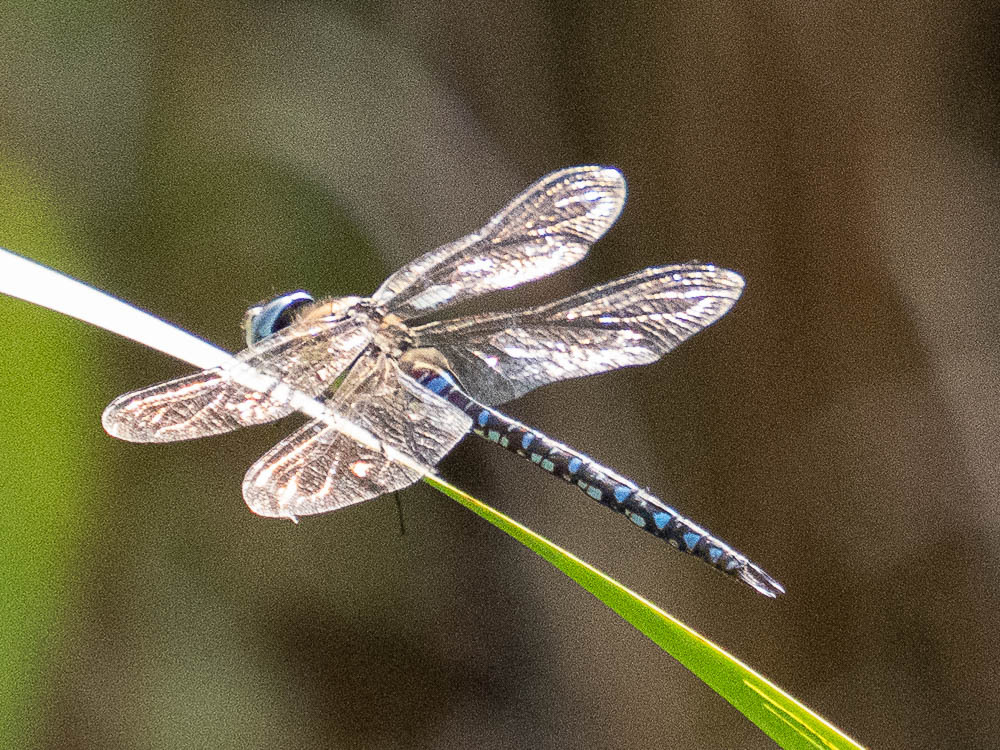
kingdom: Animalia
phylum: Arthropoda
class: Insecta
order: Odonata
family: Aeshnidae
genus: Aeshna
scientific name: Aeshna mixta
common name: Migrant hawker
